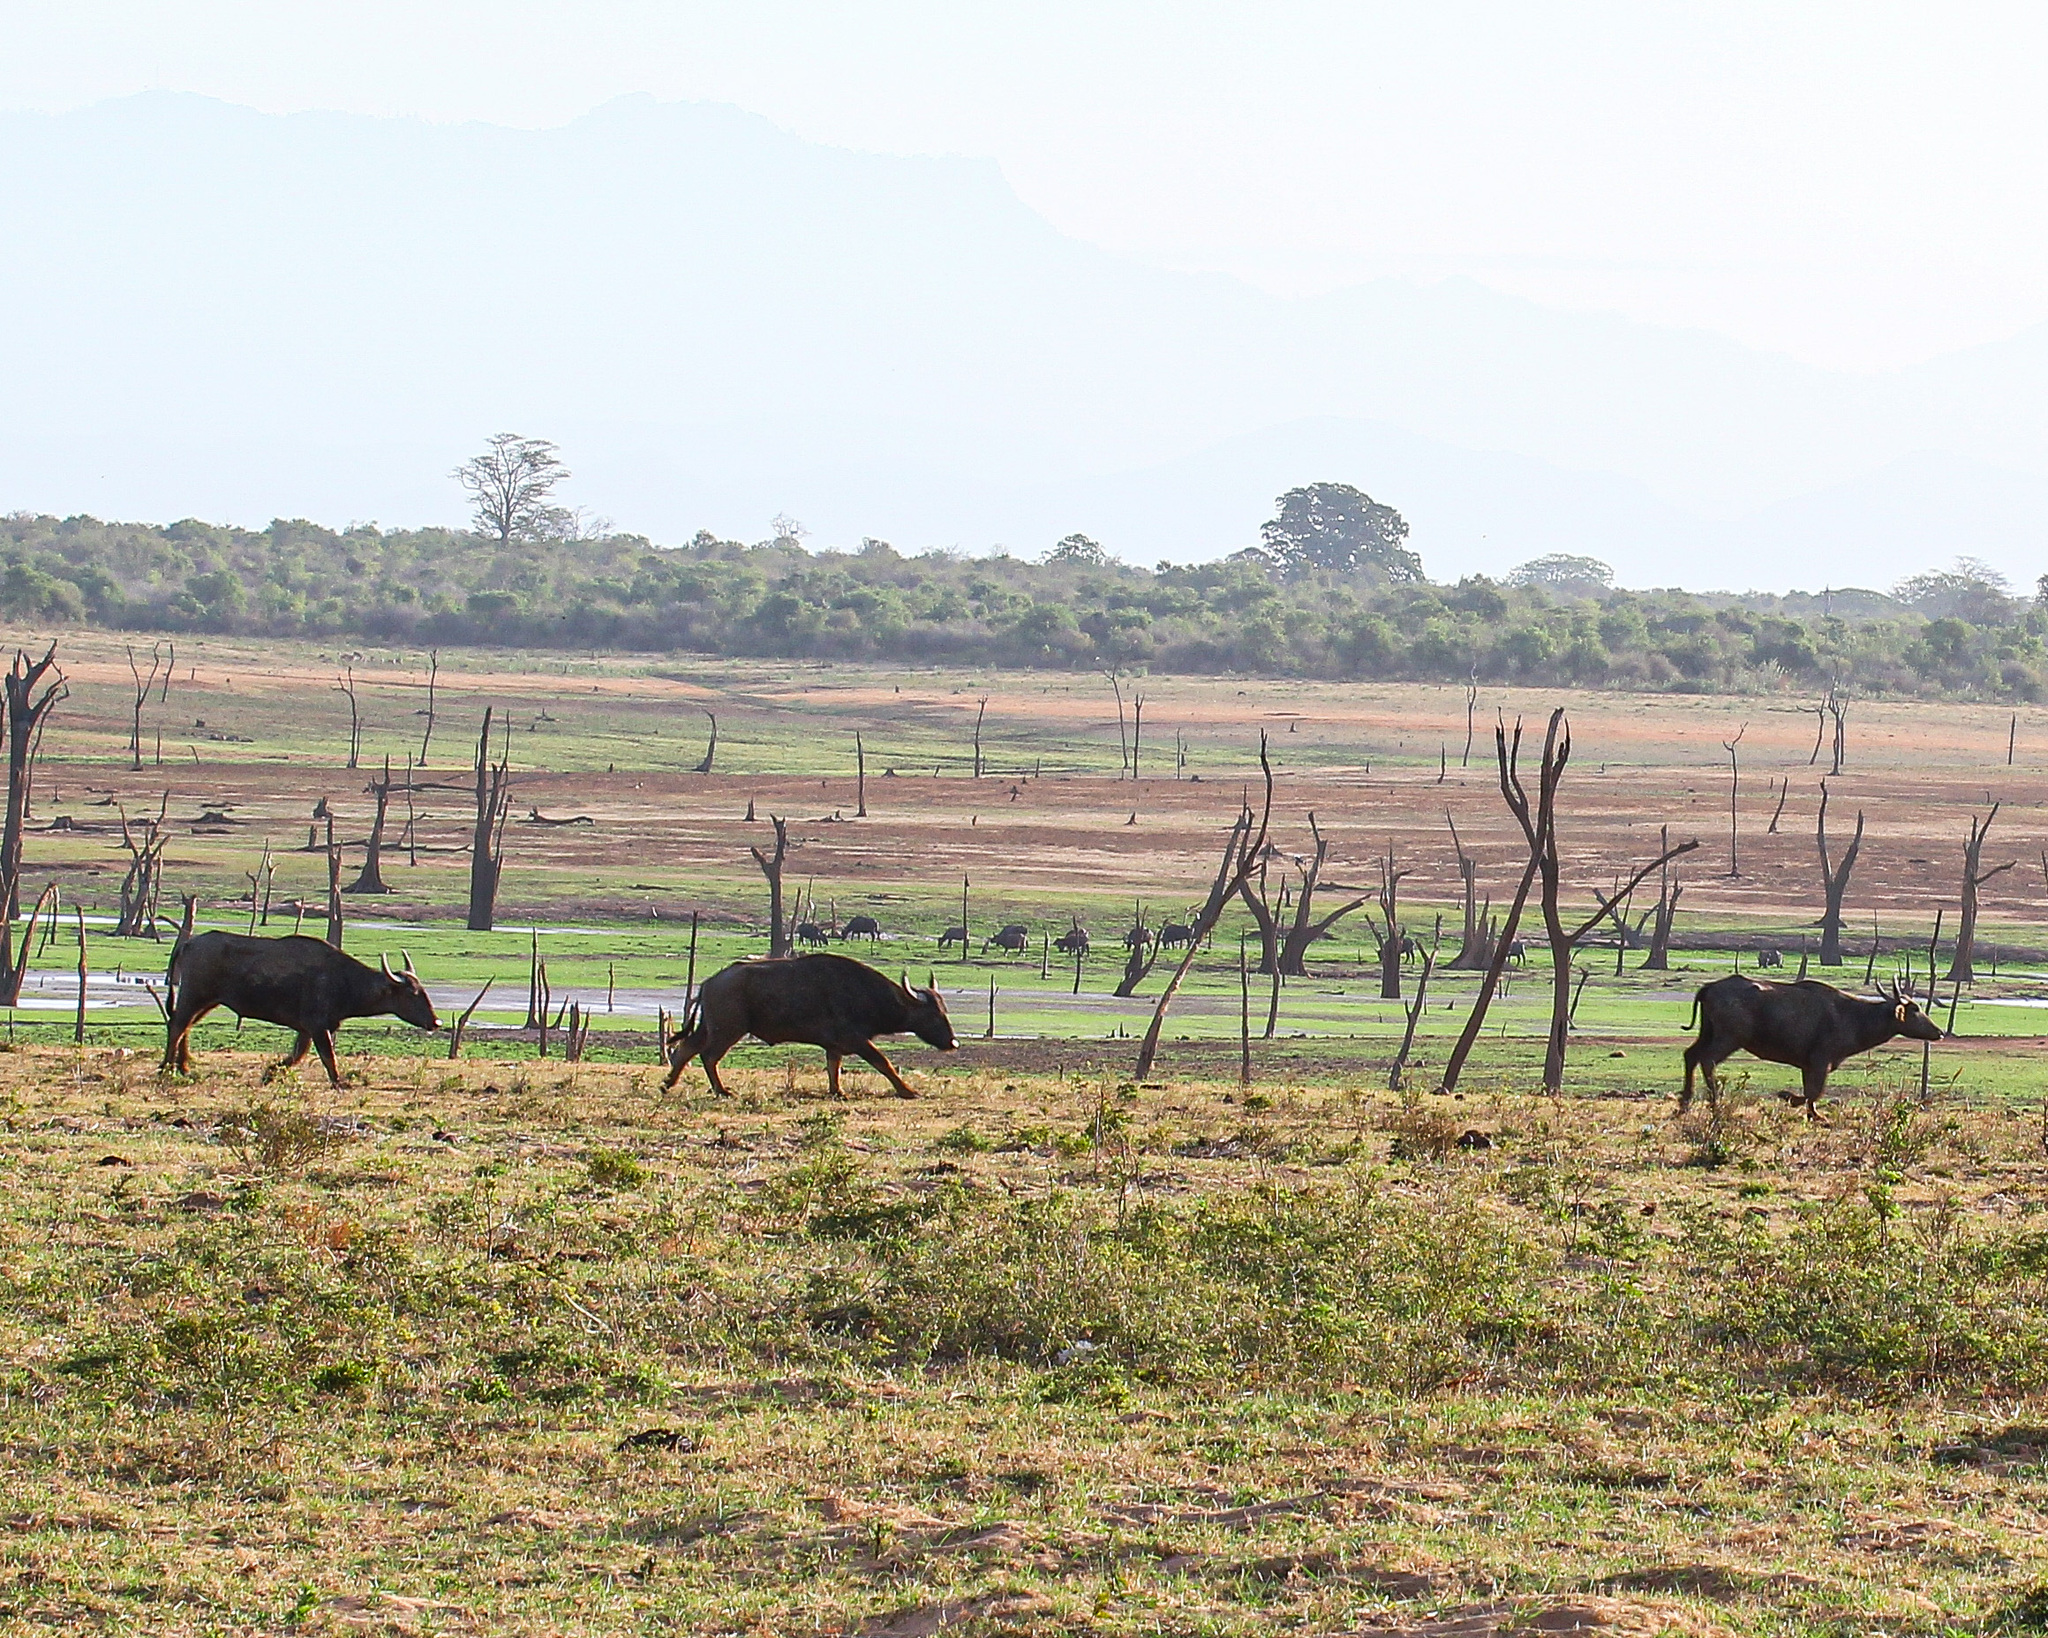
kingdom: Animalia
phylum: Chordata
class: Mammalia
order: Artiodactyla
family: Bovidae
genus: Bubalus
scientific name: Bubalus bubalis
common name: Water buffalo
